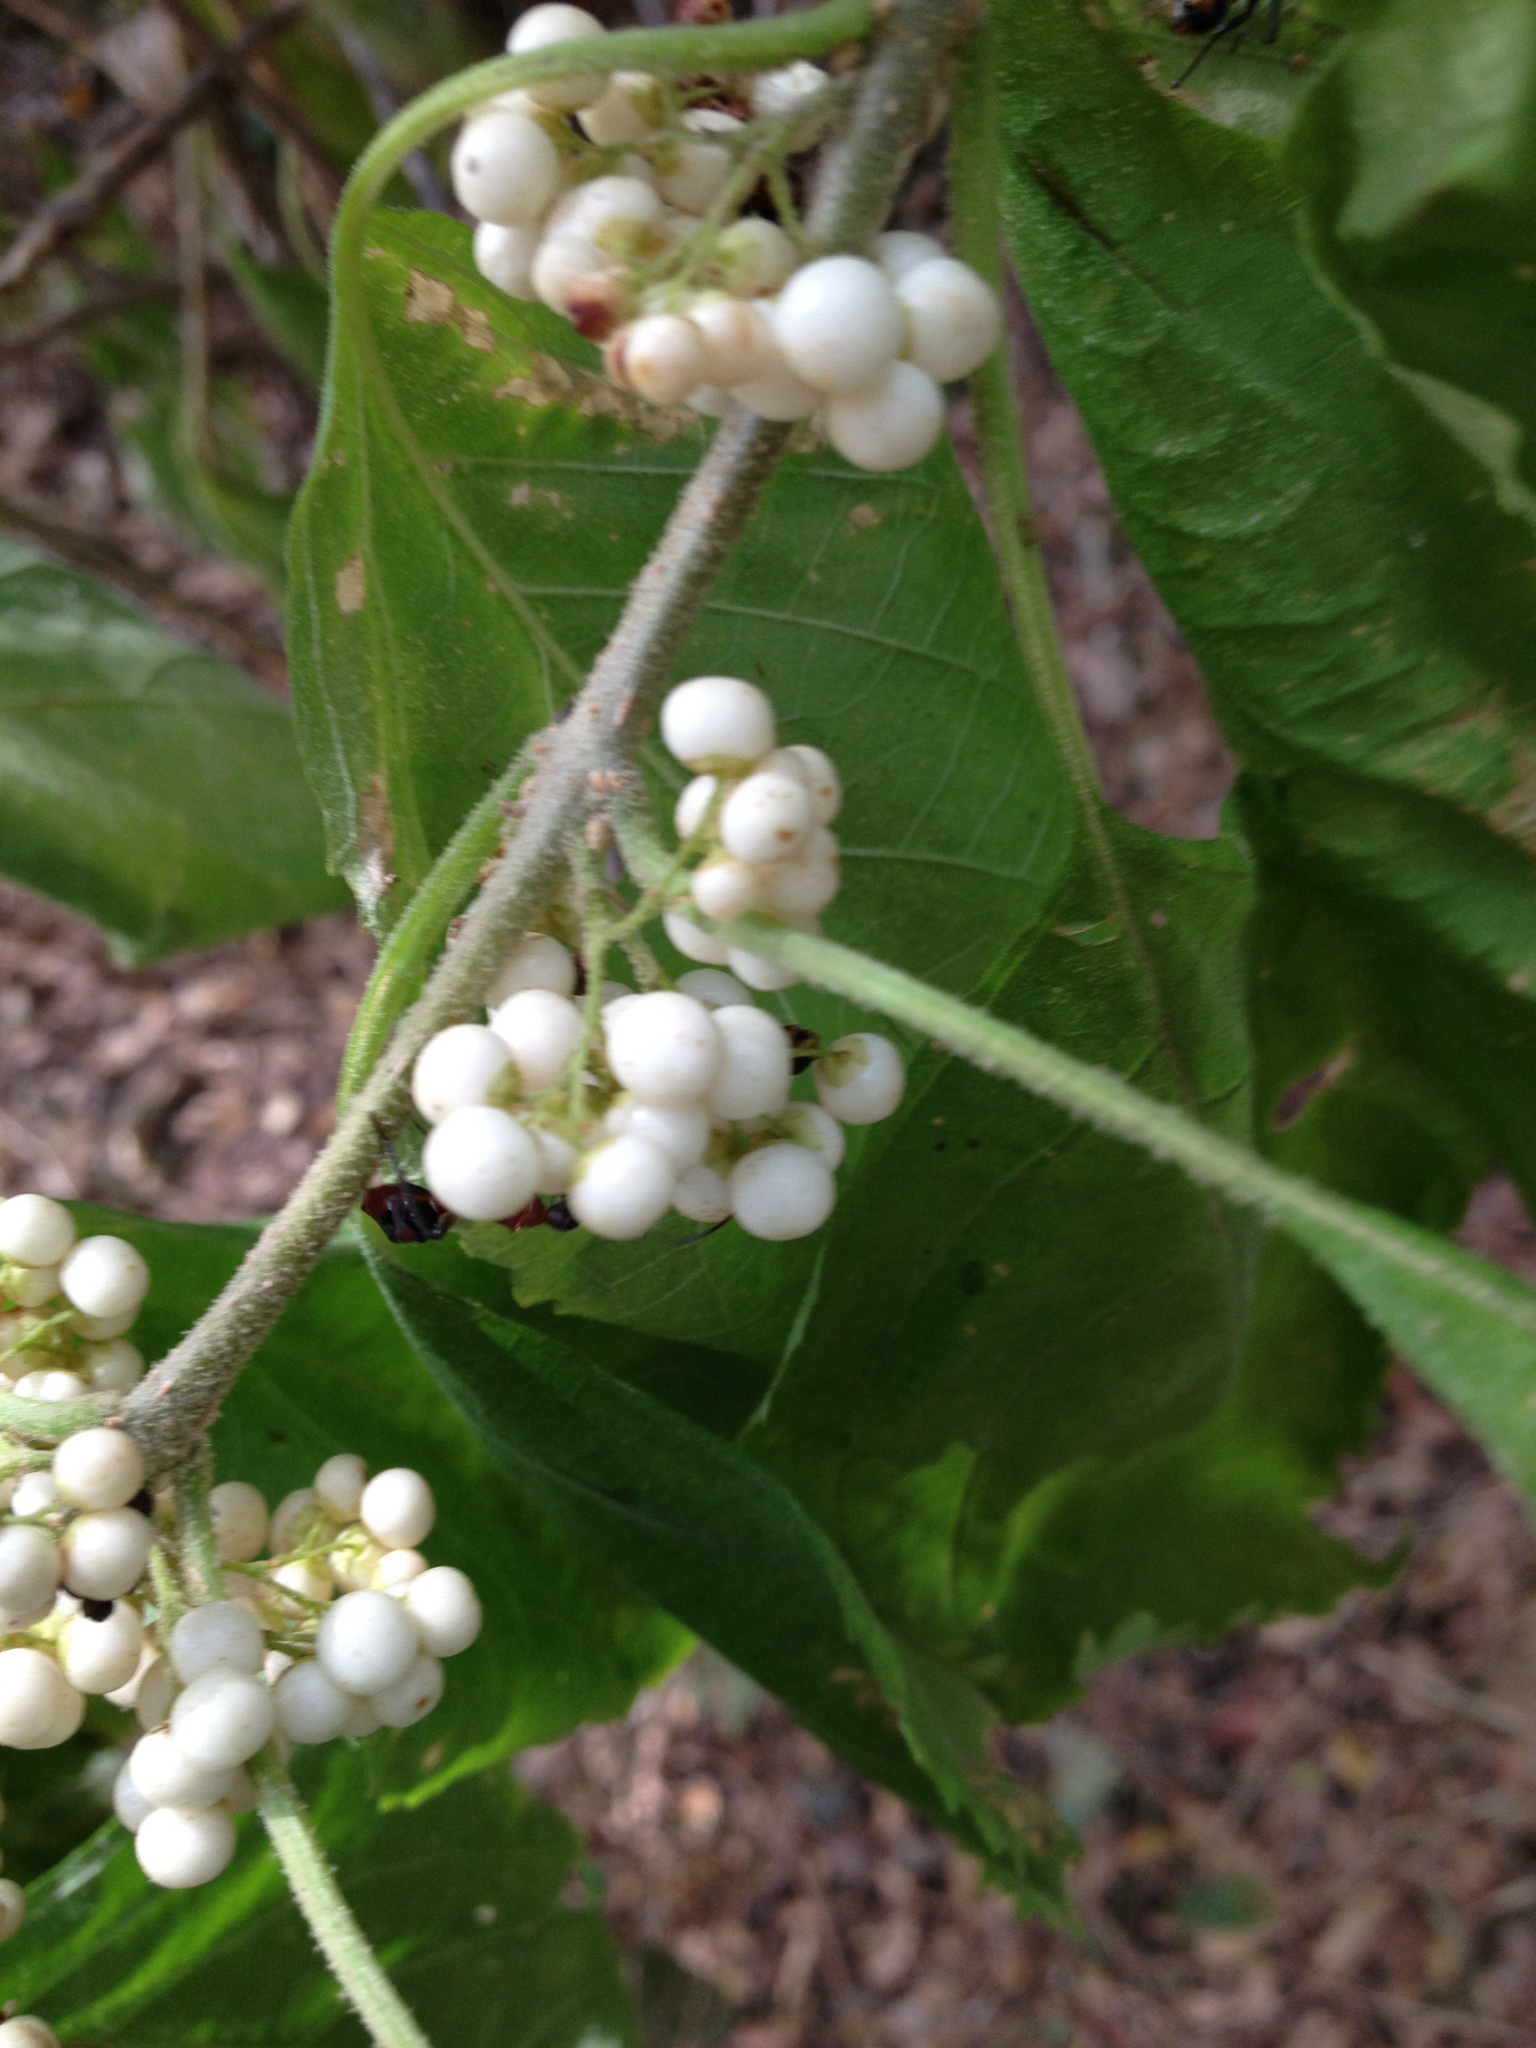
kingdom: Plantae
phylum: Tracheophyta
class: Magnoliopsida
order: Lamiales
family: Lamiaceae
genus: Callicarpa
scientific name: Callicarpa americana
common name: American beautyberry
